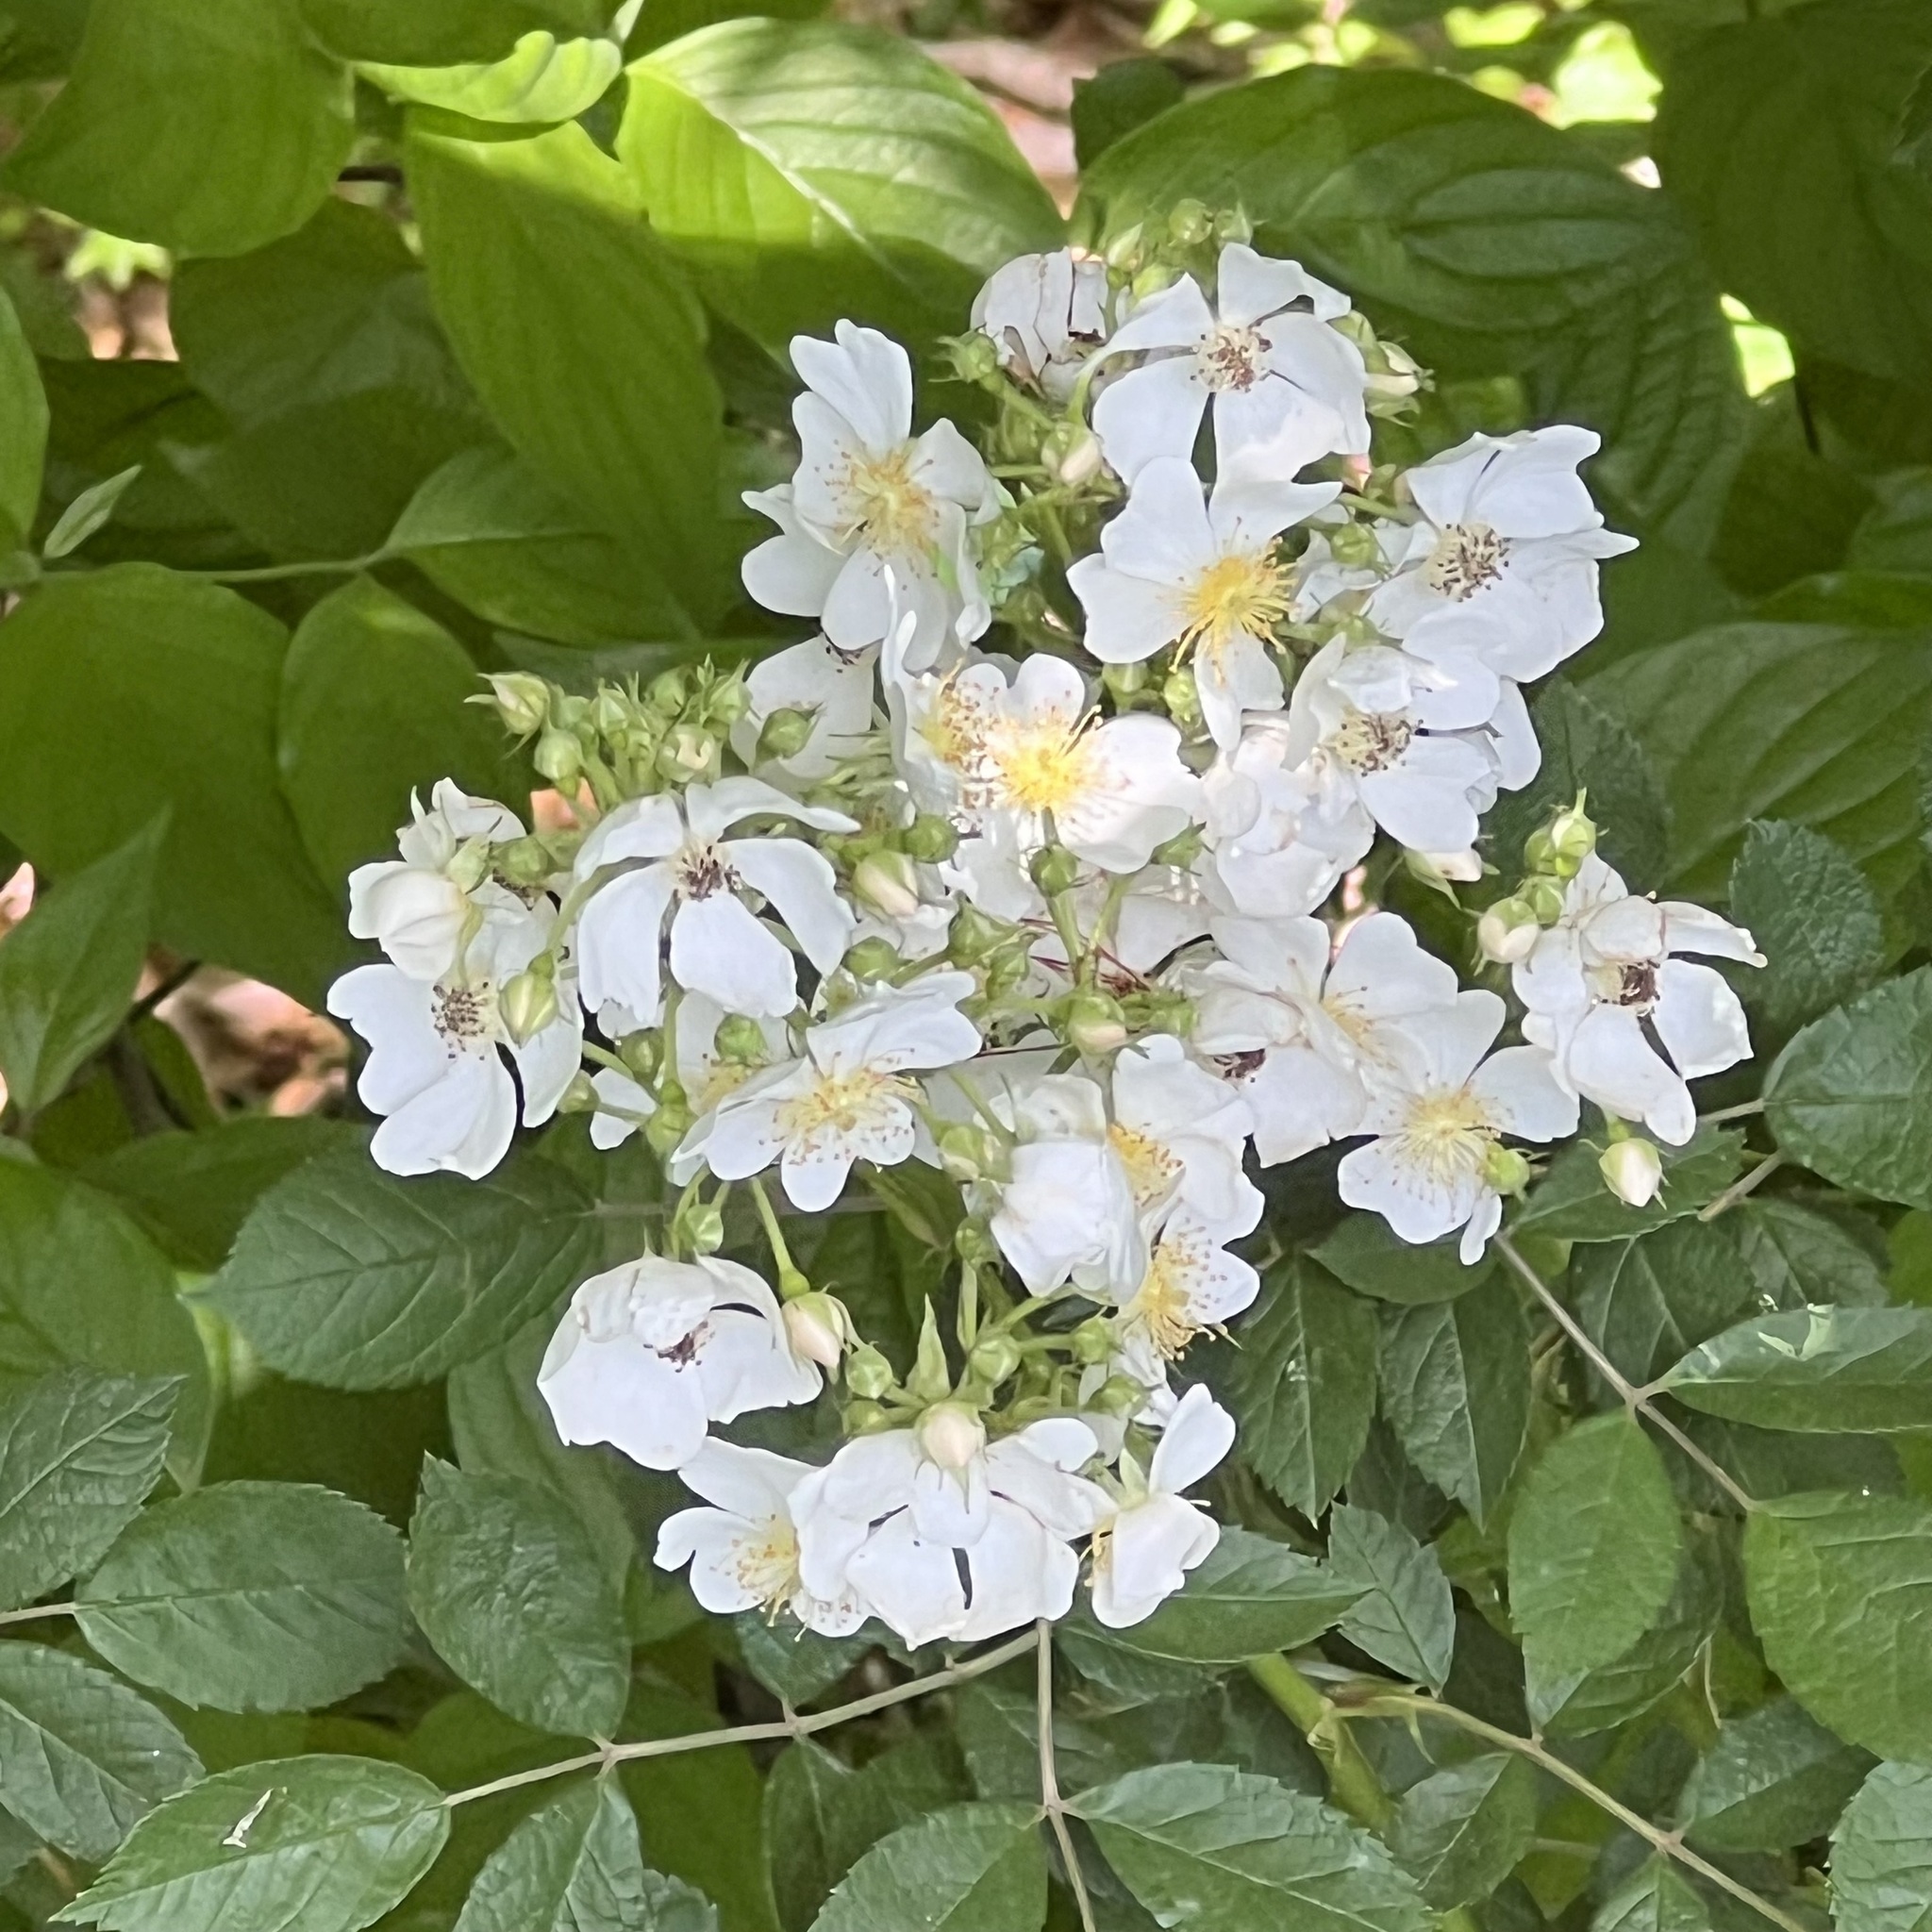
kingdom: Plantae
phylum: Tracheophyta
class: Magnoliopsida
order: Rosales
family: Rosaceae
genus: Rosa
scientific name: Rosa multiflora
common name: Multiflora rose
